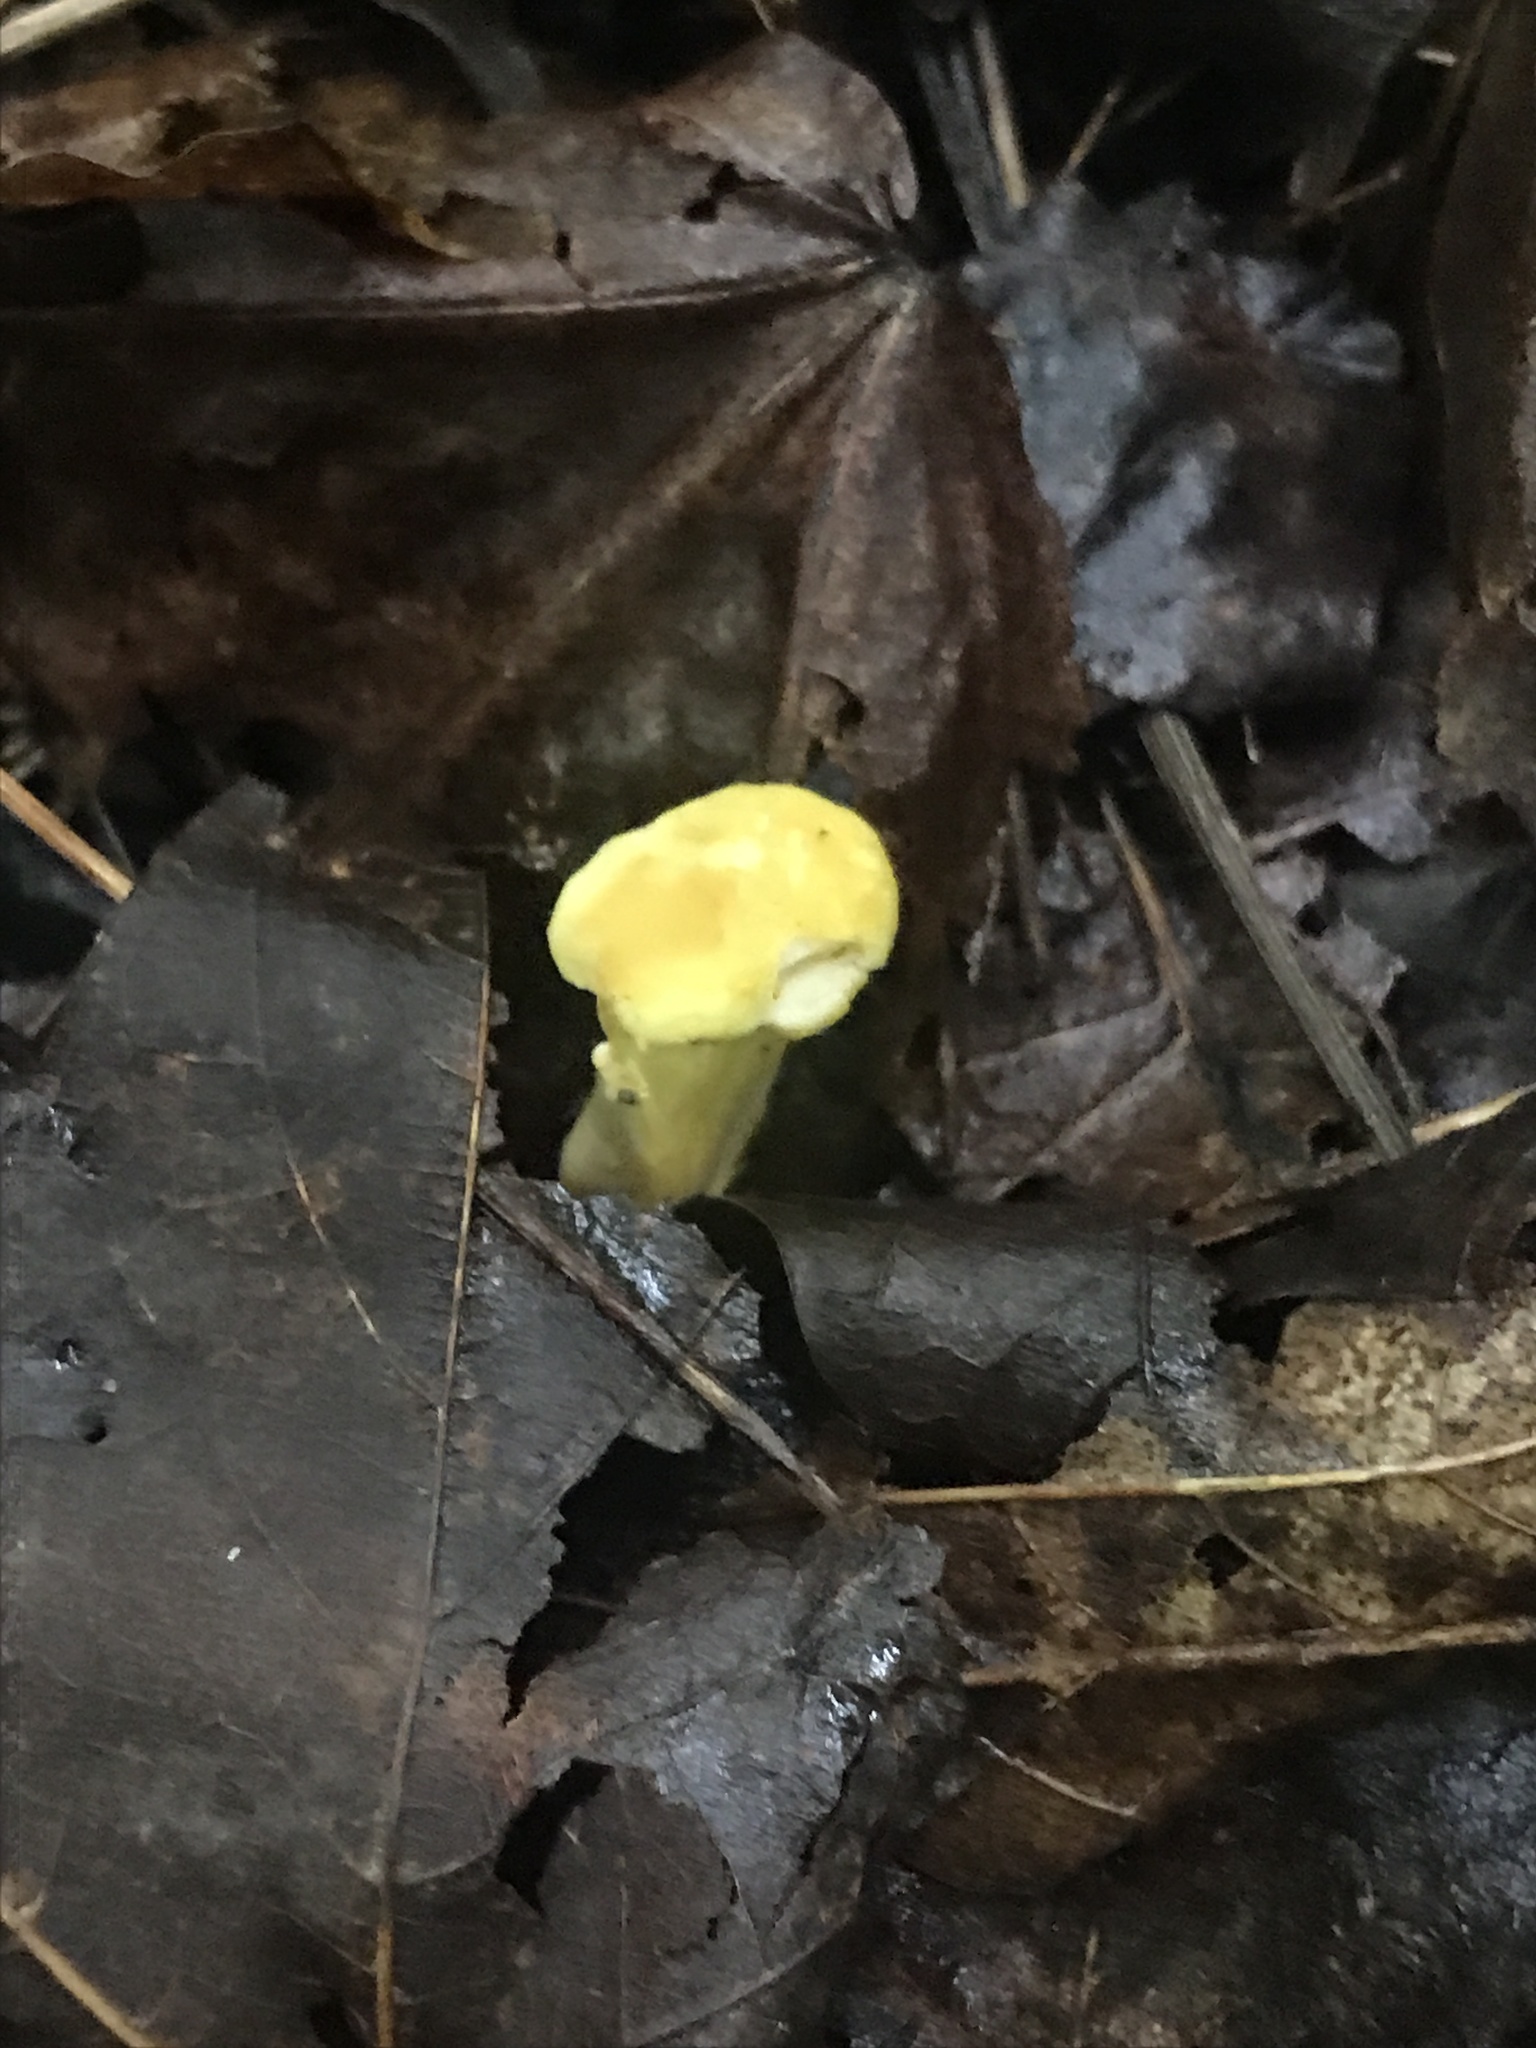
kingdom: Fungi
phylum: Basidiomycota
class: Agaricomycetes
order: Cantharellales
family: Hydnaceae
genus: Cantharellus
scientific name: Cantharellus flavolateritius
